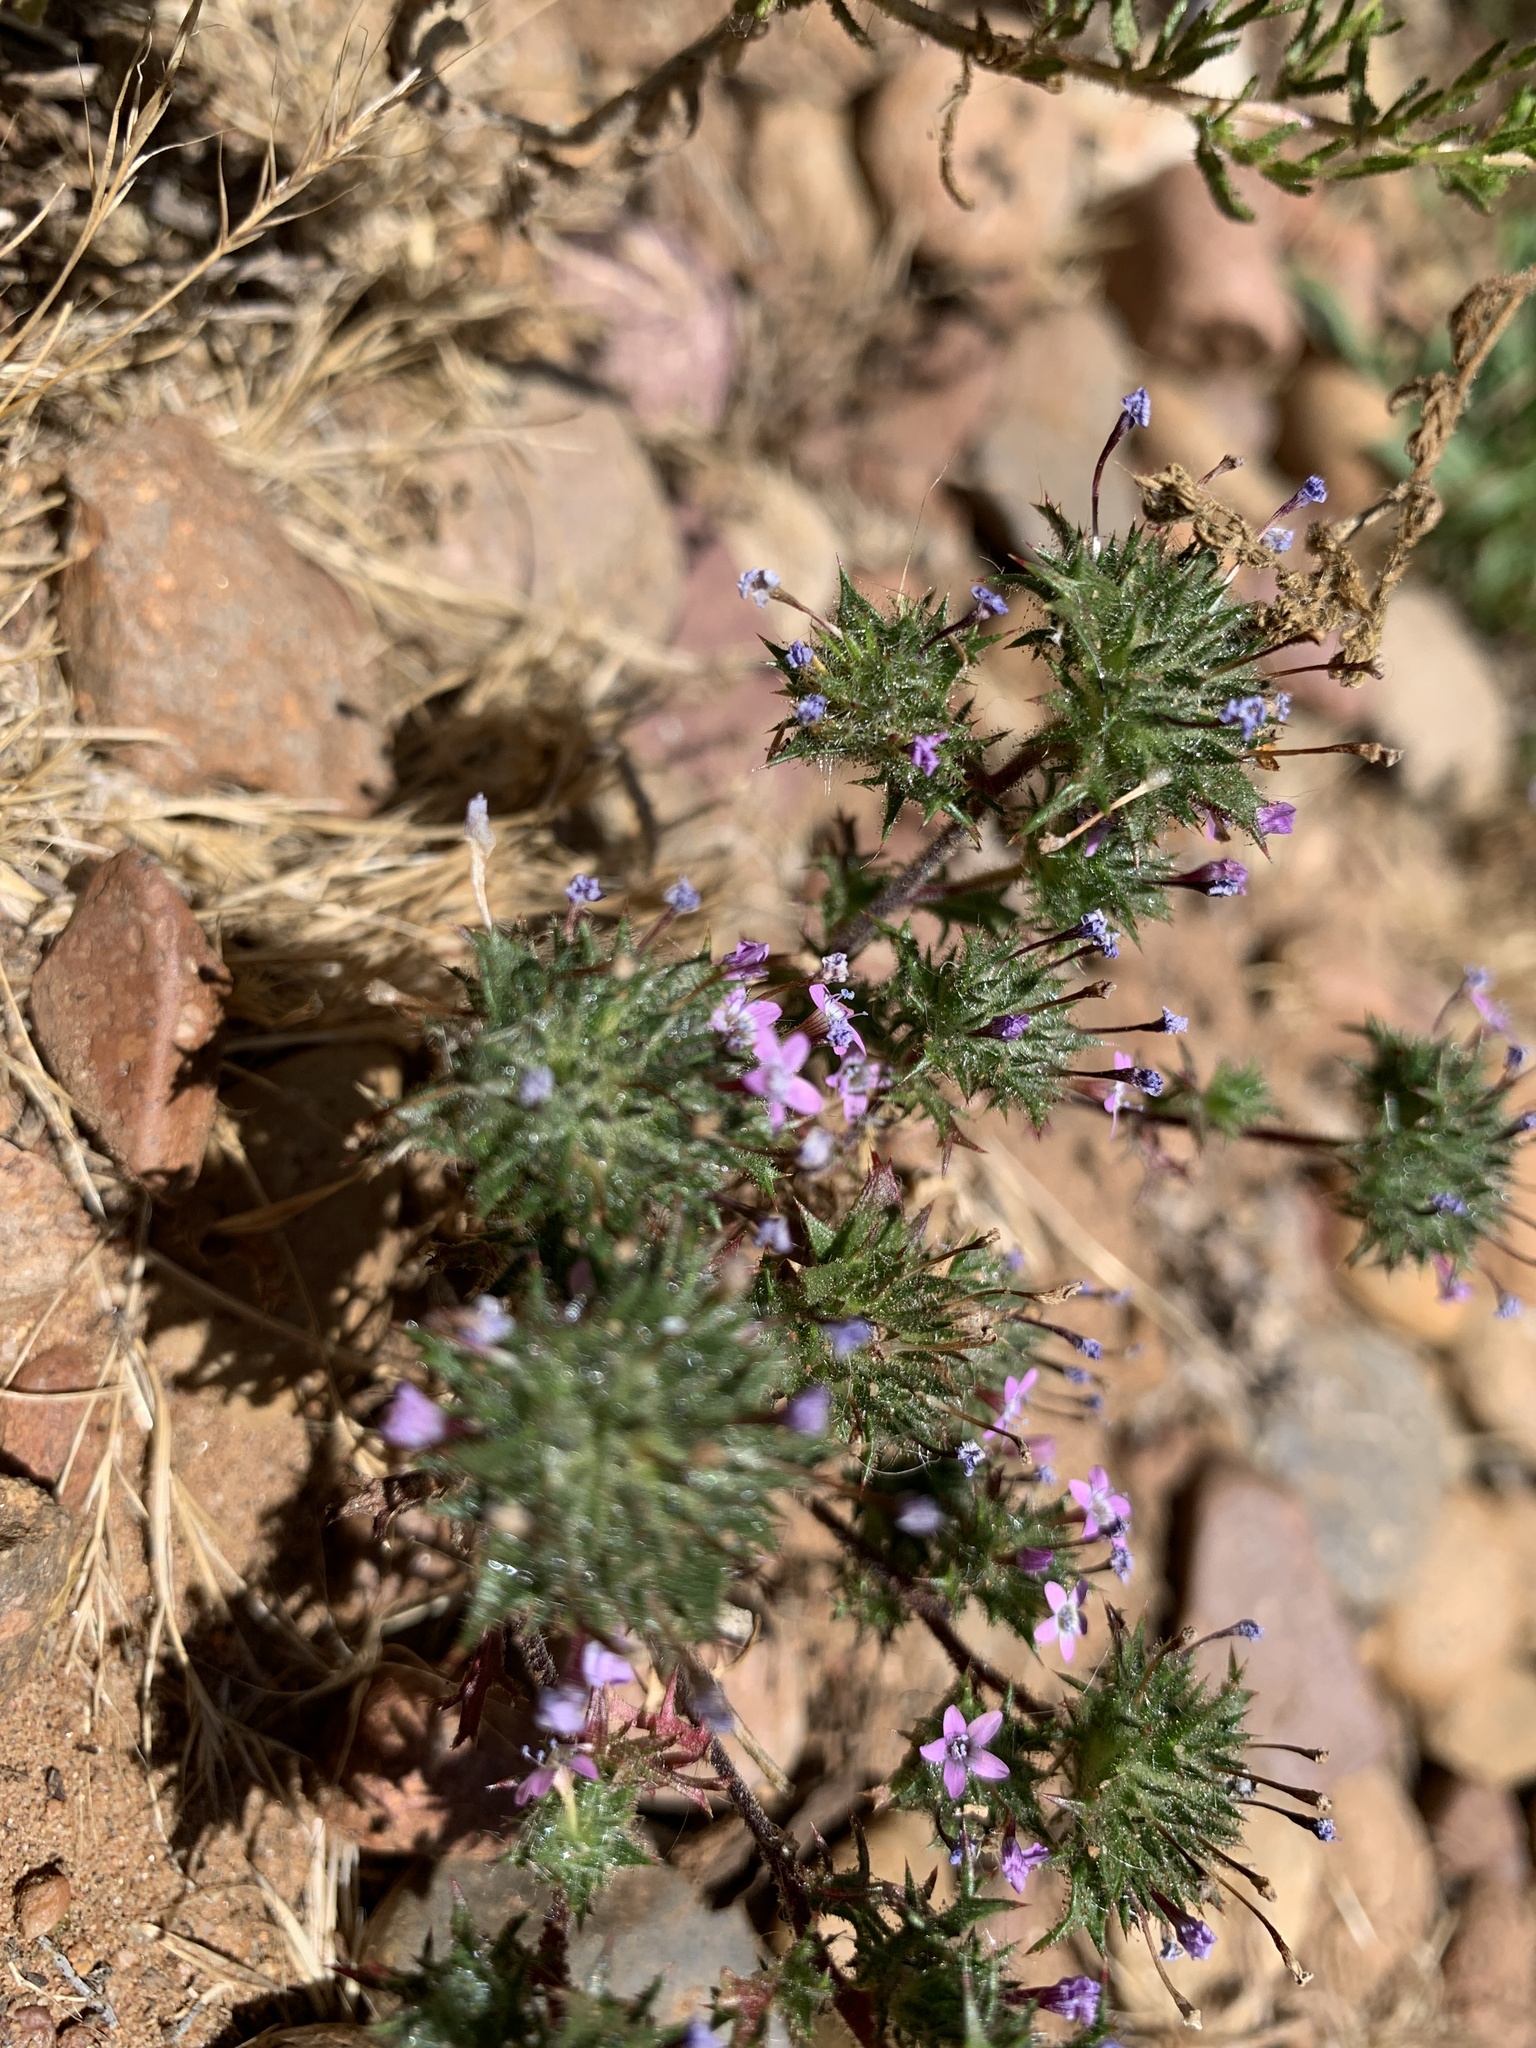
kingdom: Plantae
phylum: Tracheophyta
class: Magnoliopsida
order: Ericales
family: Polemoniaceae
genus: Navarretia
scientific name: Navarretia hamata
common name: Hooked navarretia
